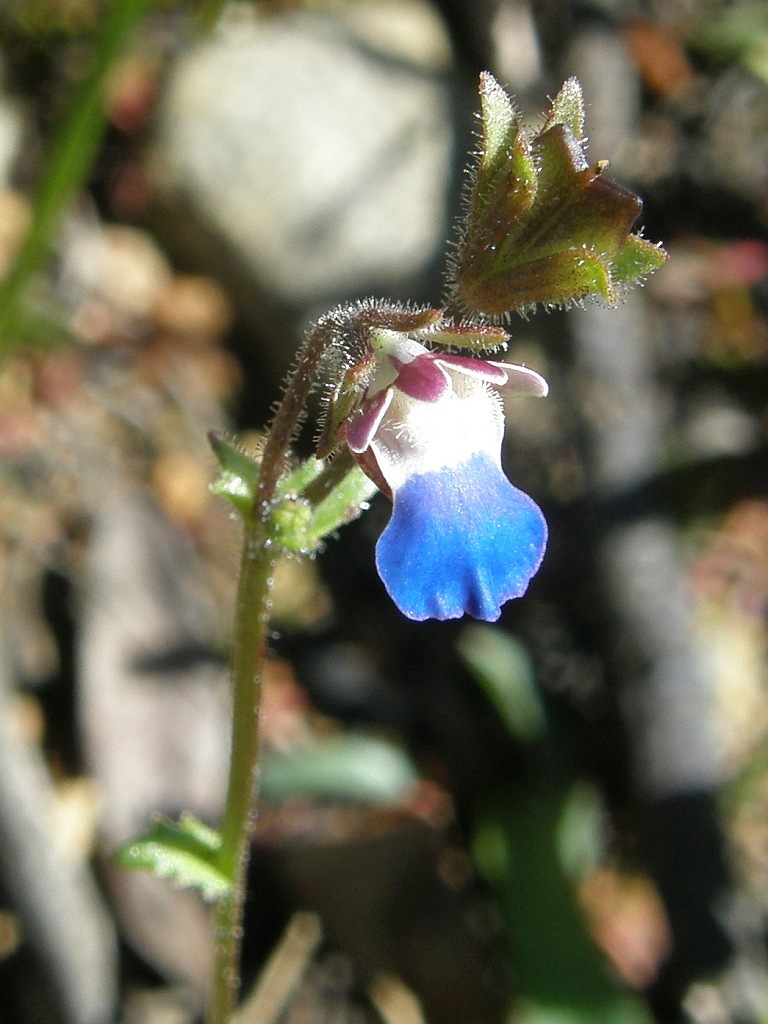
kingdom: Plantae
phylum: Tracheophyta
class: Magnoliopsida
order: Lamiales
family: Scrophulariaceae
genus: Nemesia
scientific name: Nemesia barbata
